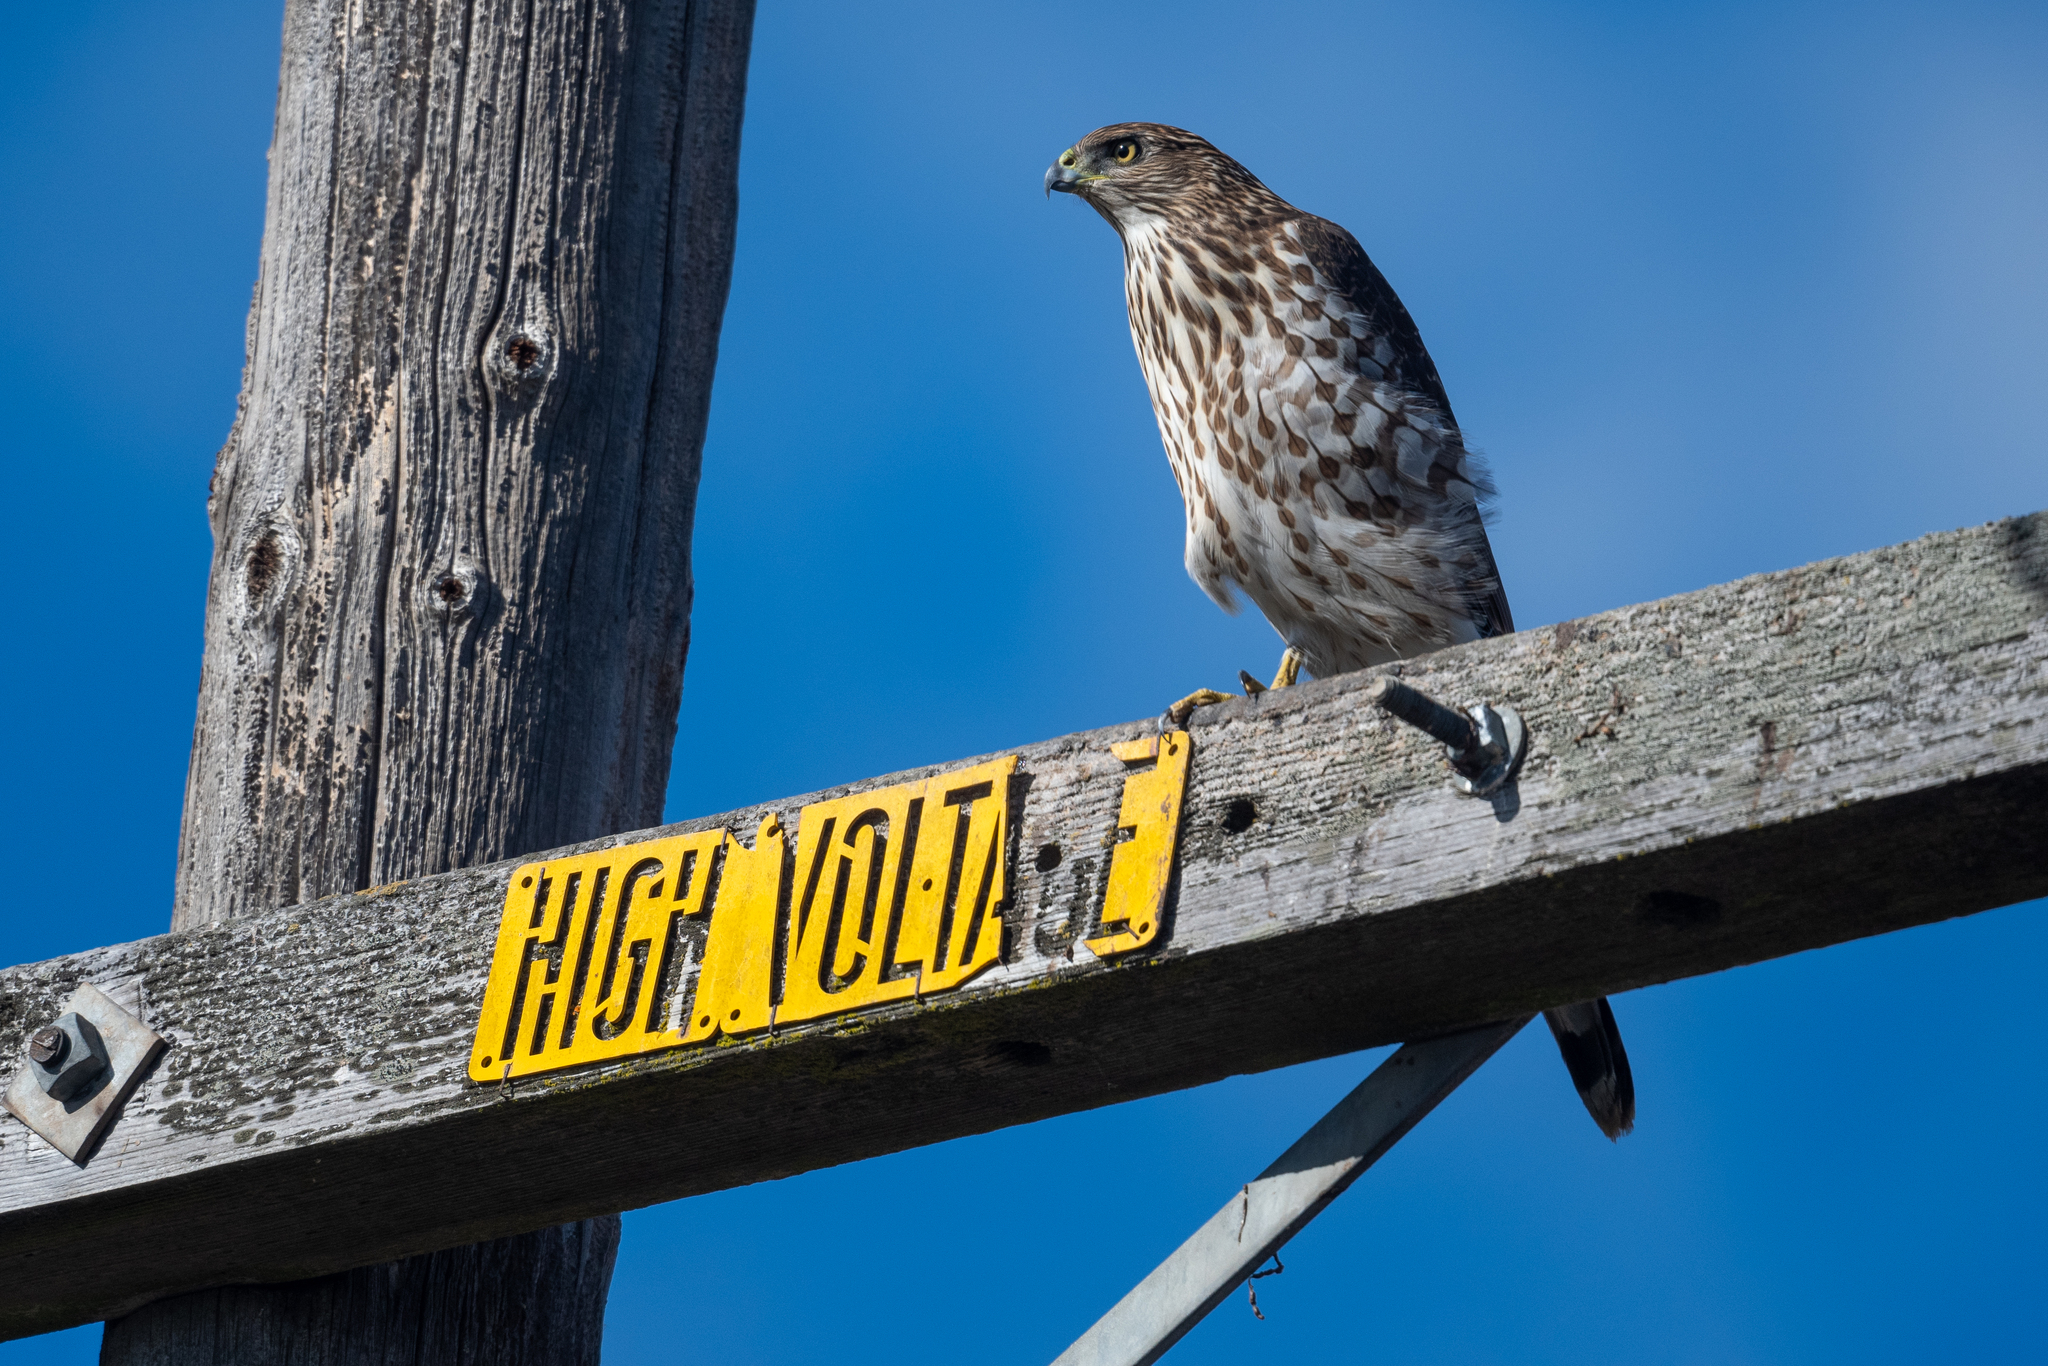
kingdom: Animalia
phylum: Chordata
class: Aves
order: Accipitriformes
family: Accipitridae
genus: Accipiter
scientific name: Accipiter cooperii
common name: Cooper's hawk
